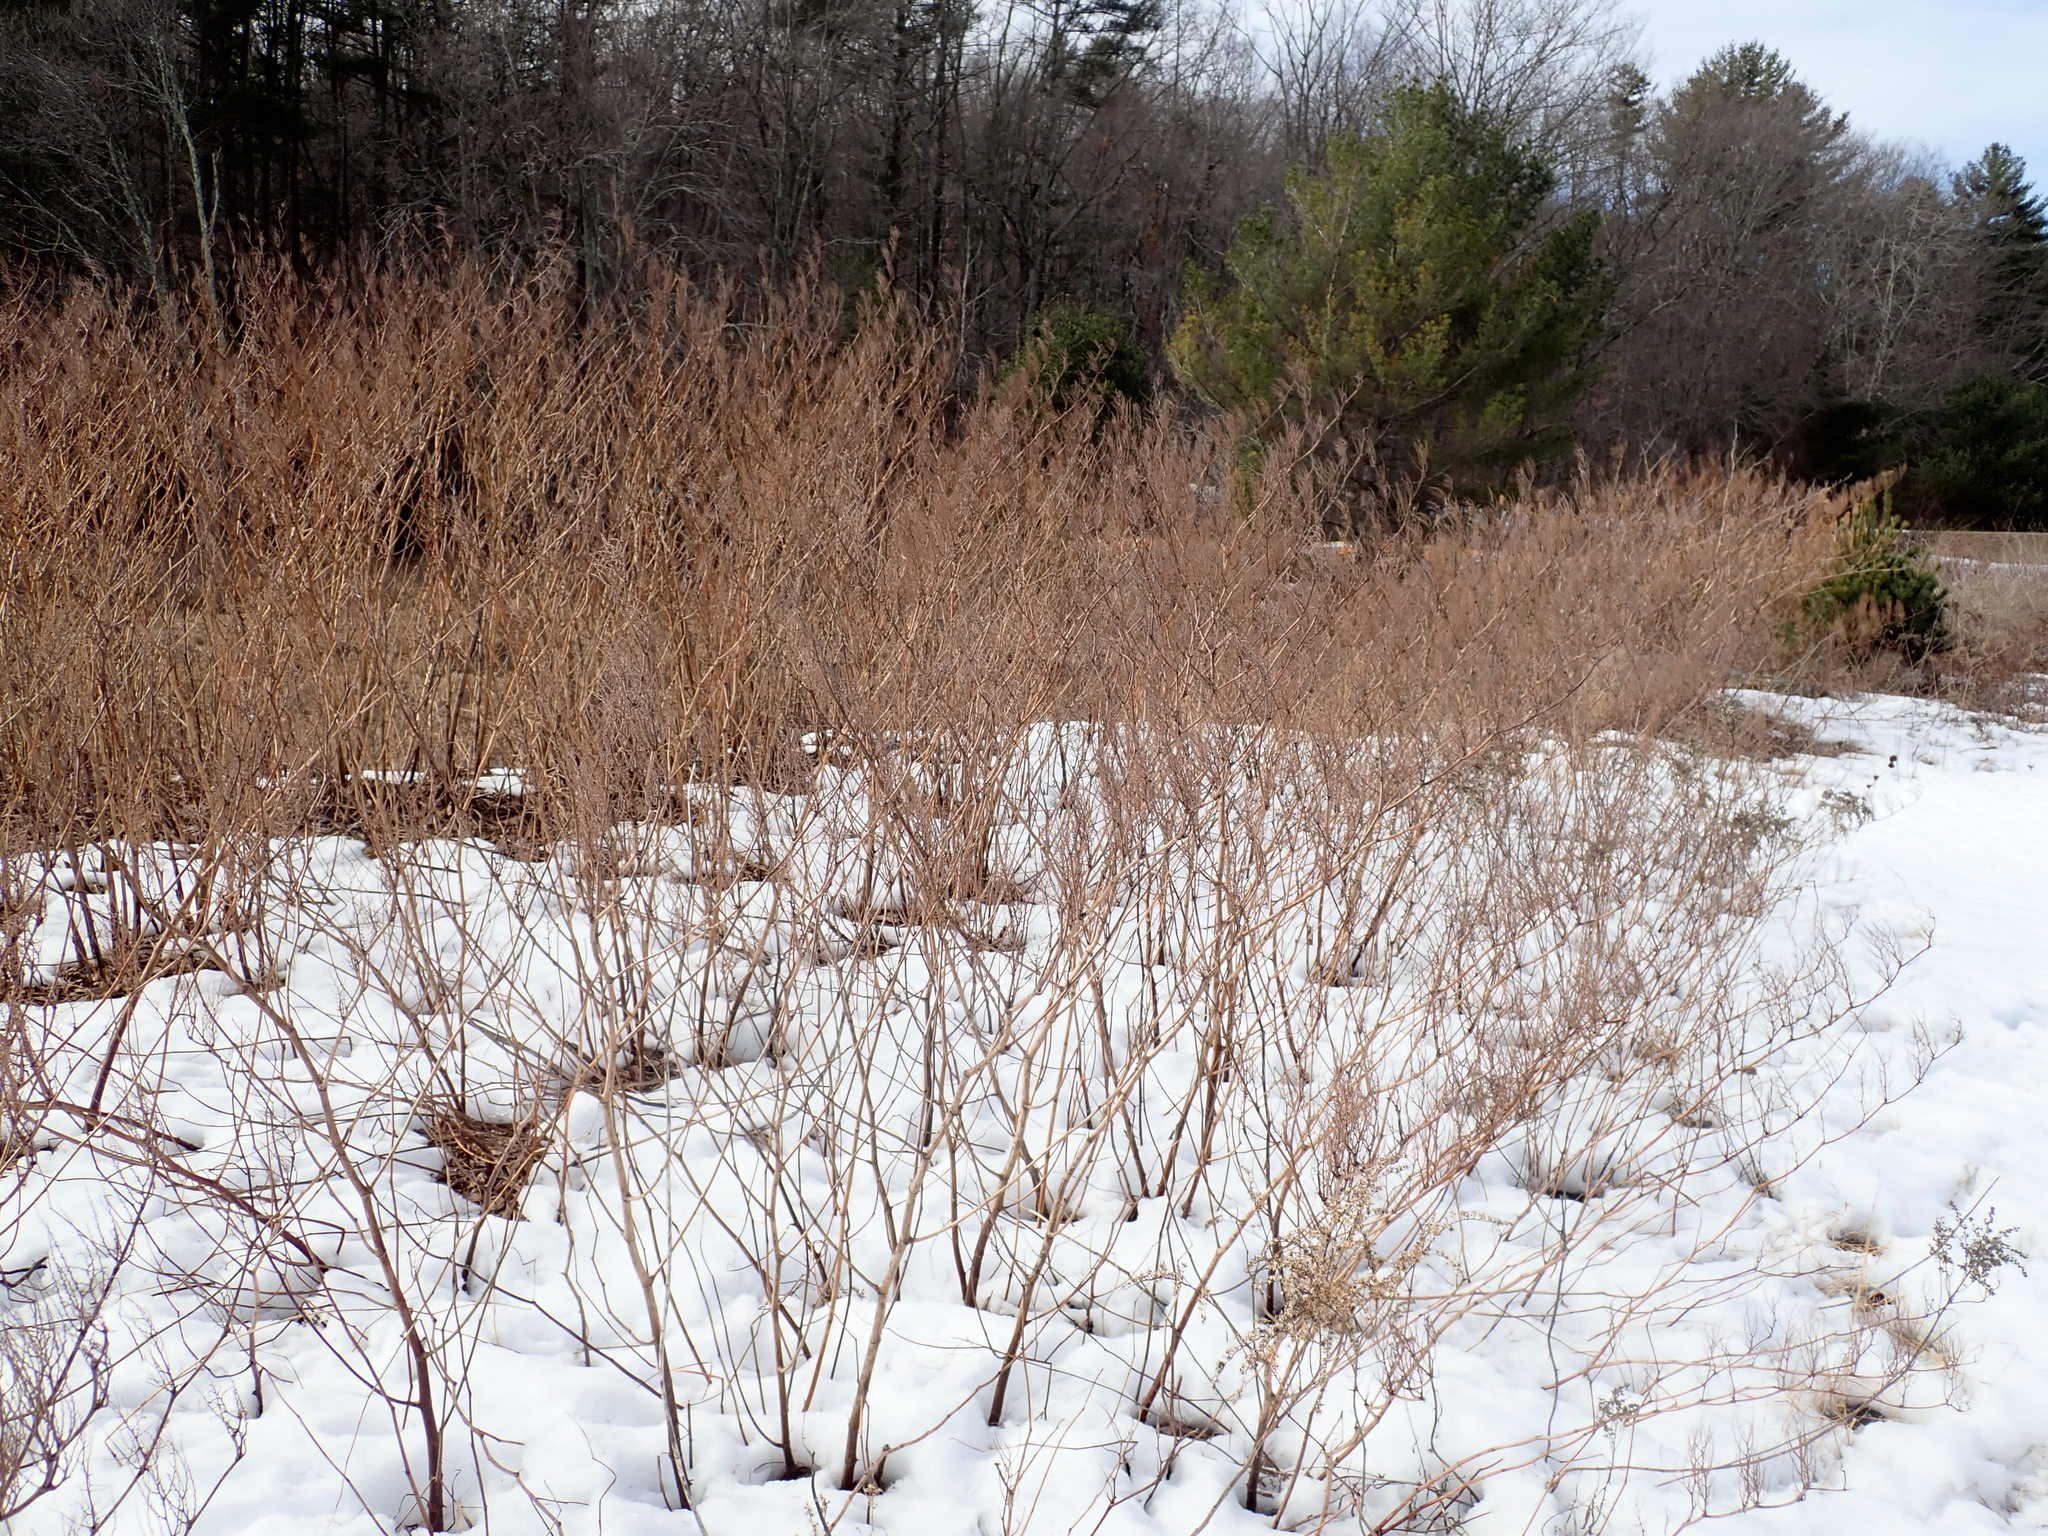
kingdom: Plantae
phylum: Tracheophyta
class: Magnoliopsida
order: Caryophyllales
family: Polygonaceae
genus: Reynoutria
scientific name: Reynoutria
